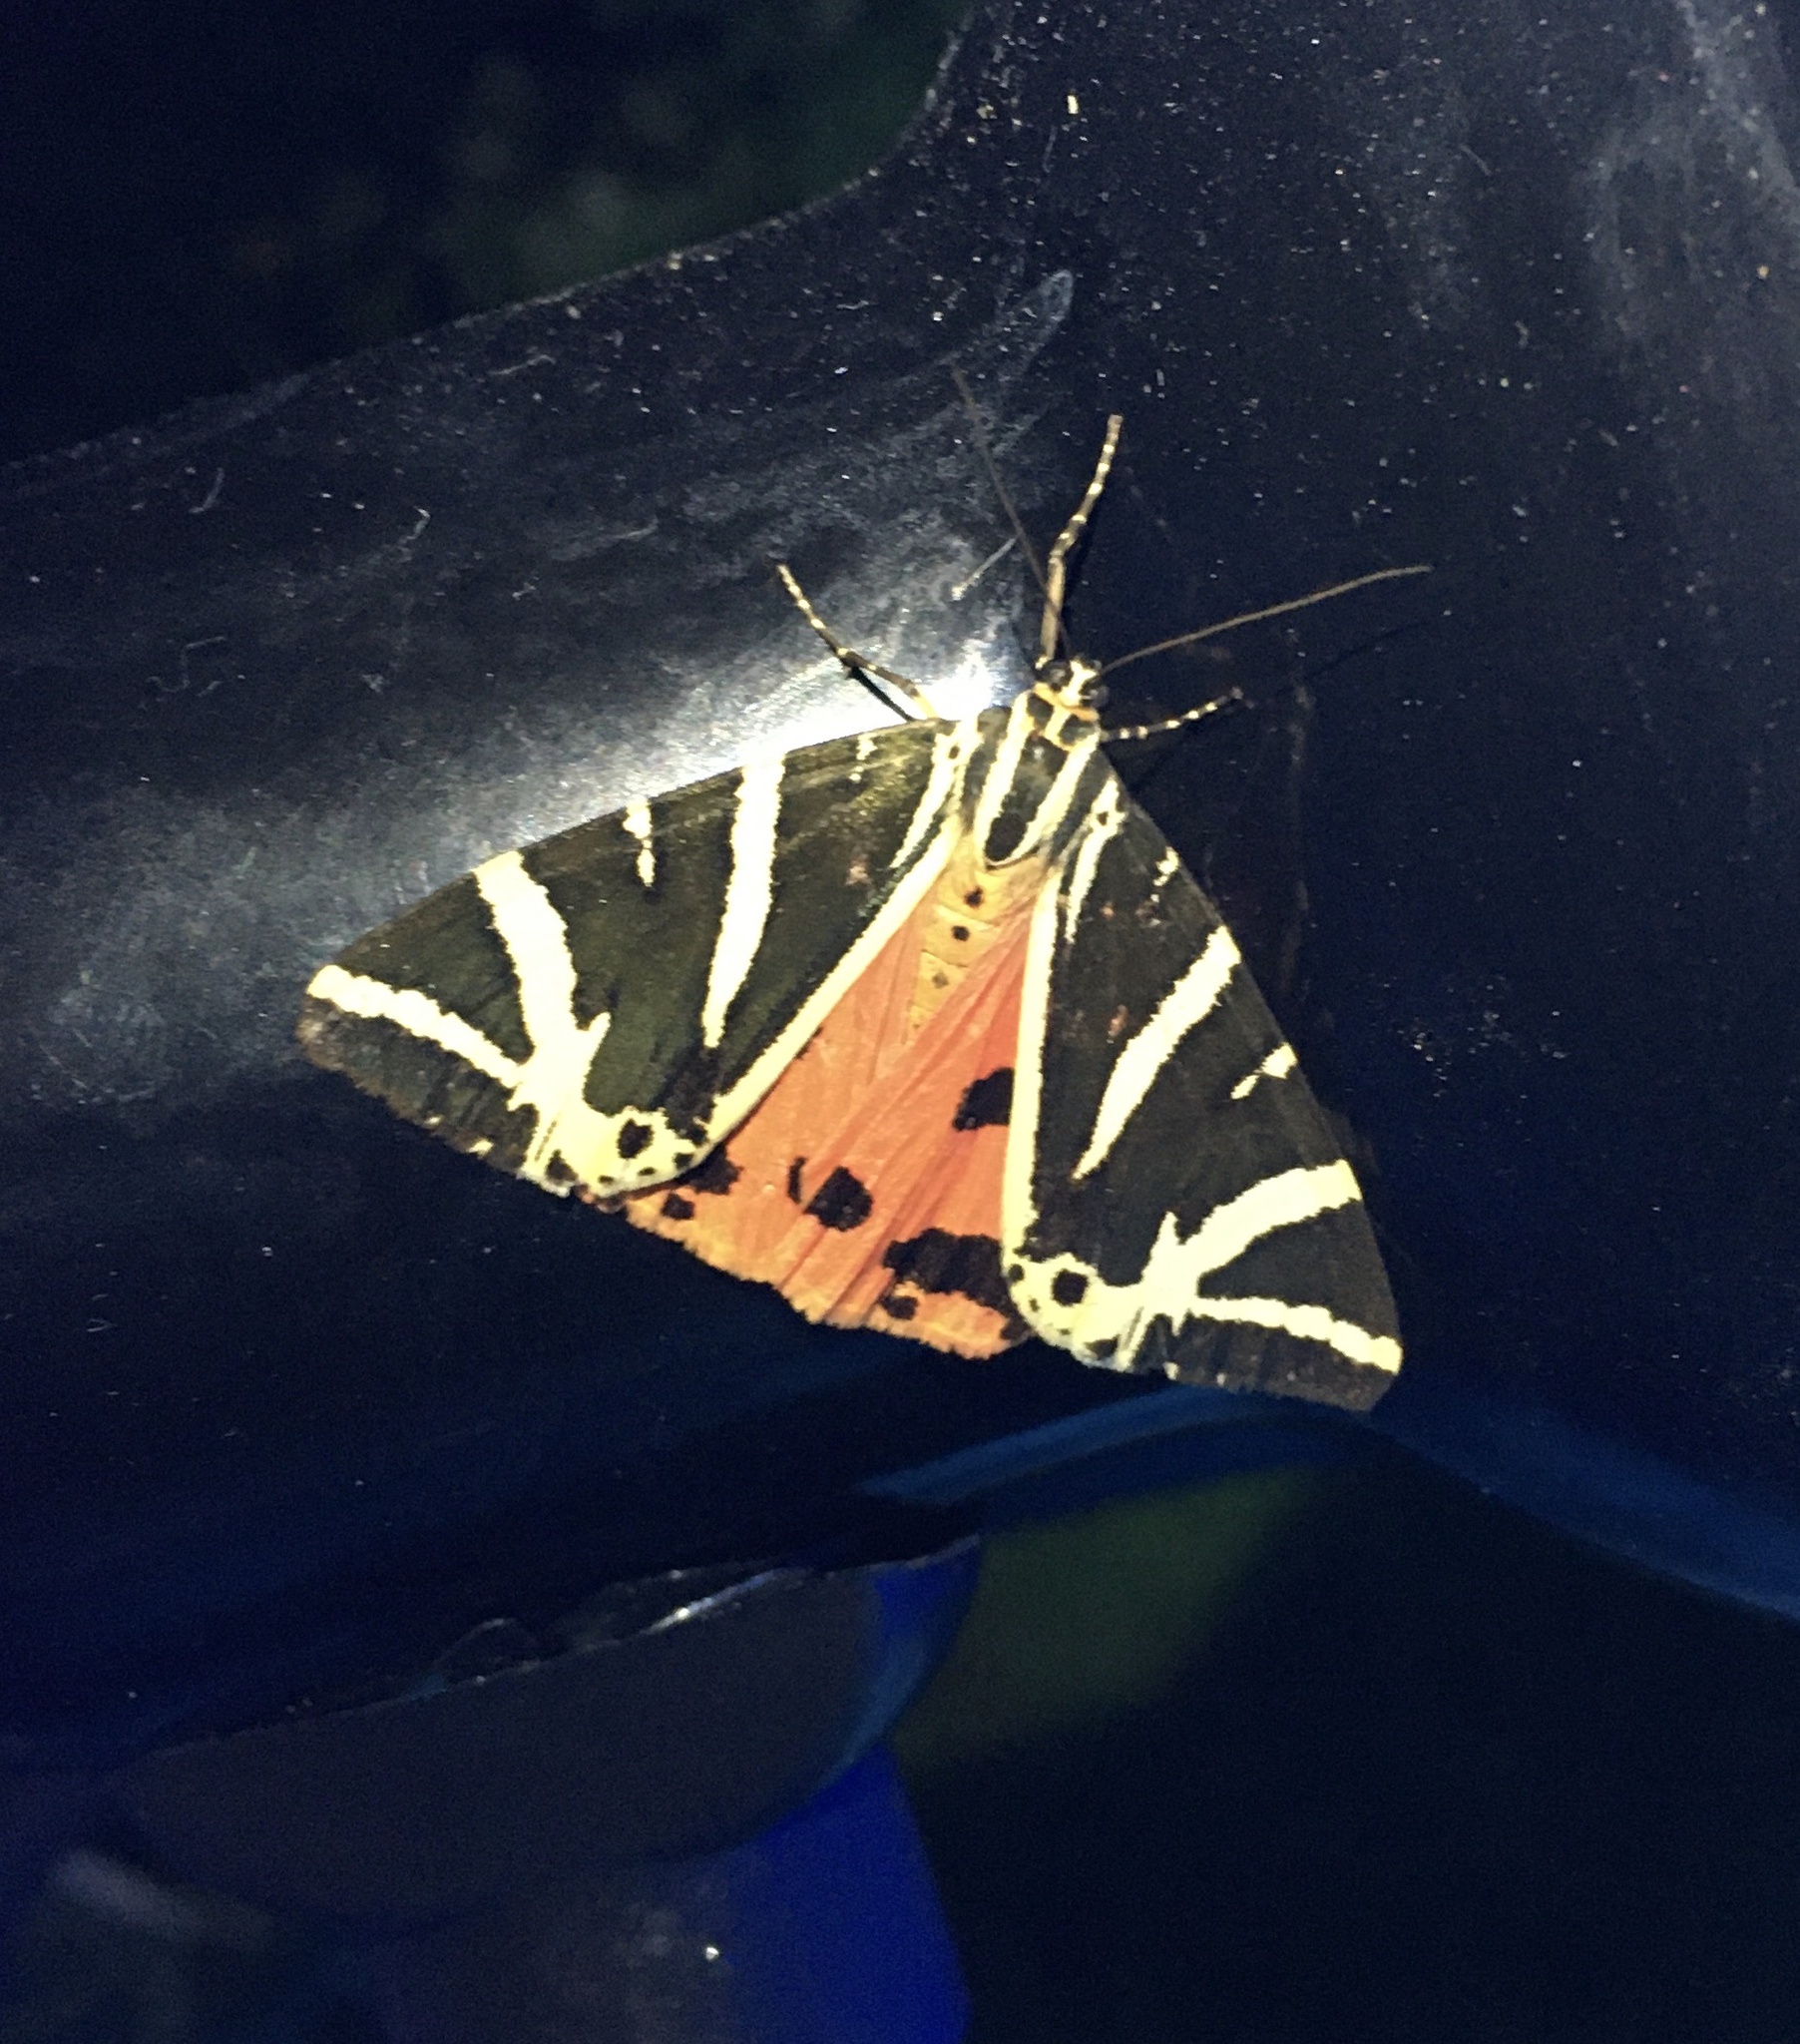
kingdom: Animalia
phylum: Arthropoda
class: Insecta
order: Lepidoptera
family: Erebidae
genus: Euplagia
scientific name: Euplagia quadripunctaria
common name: Jersey tiger
